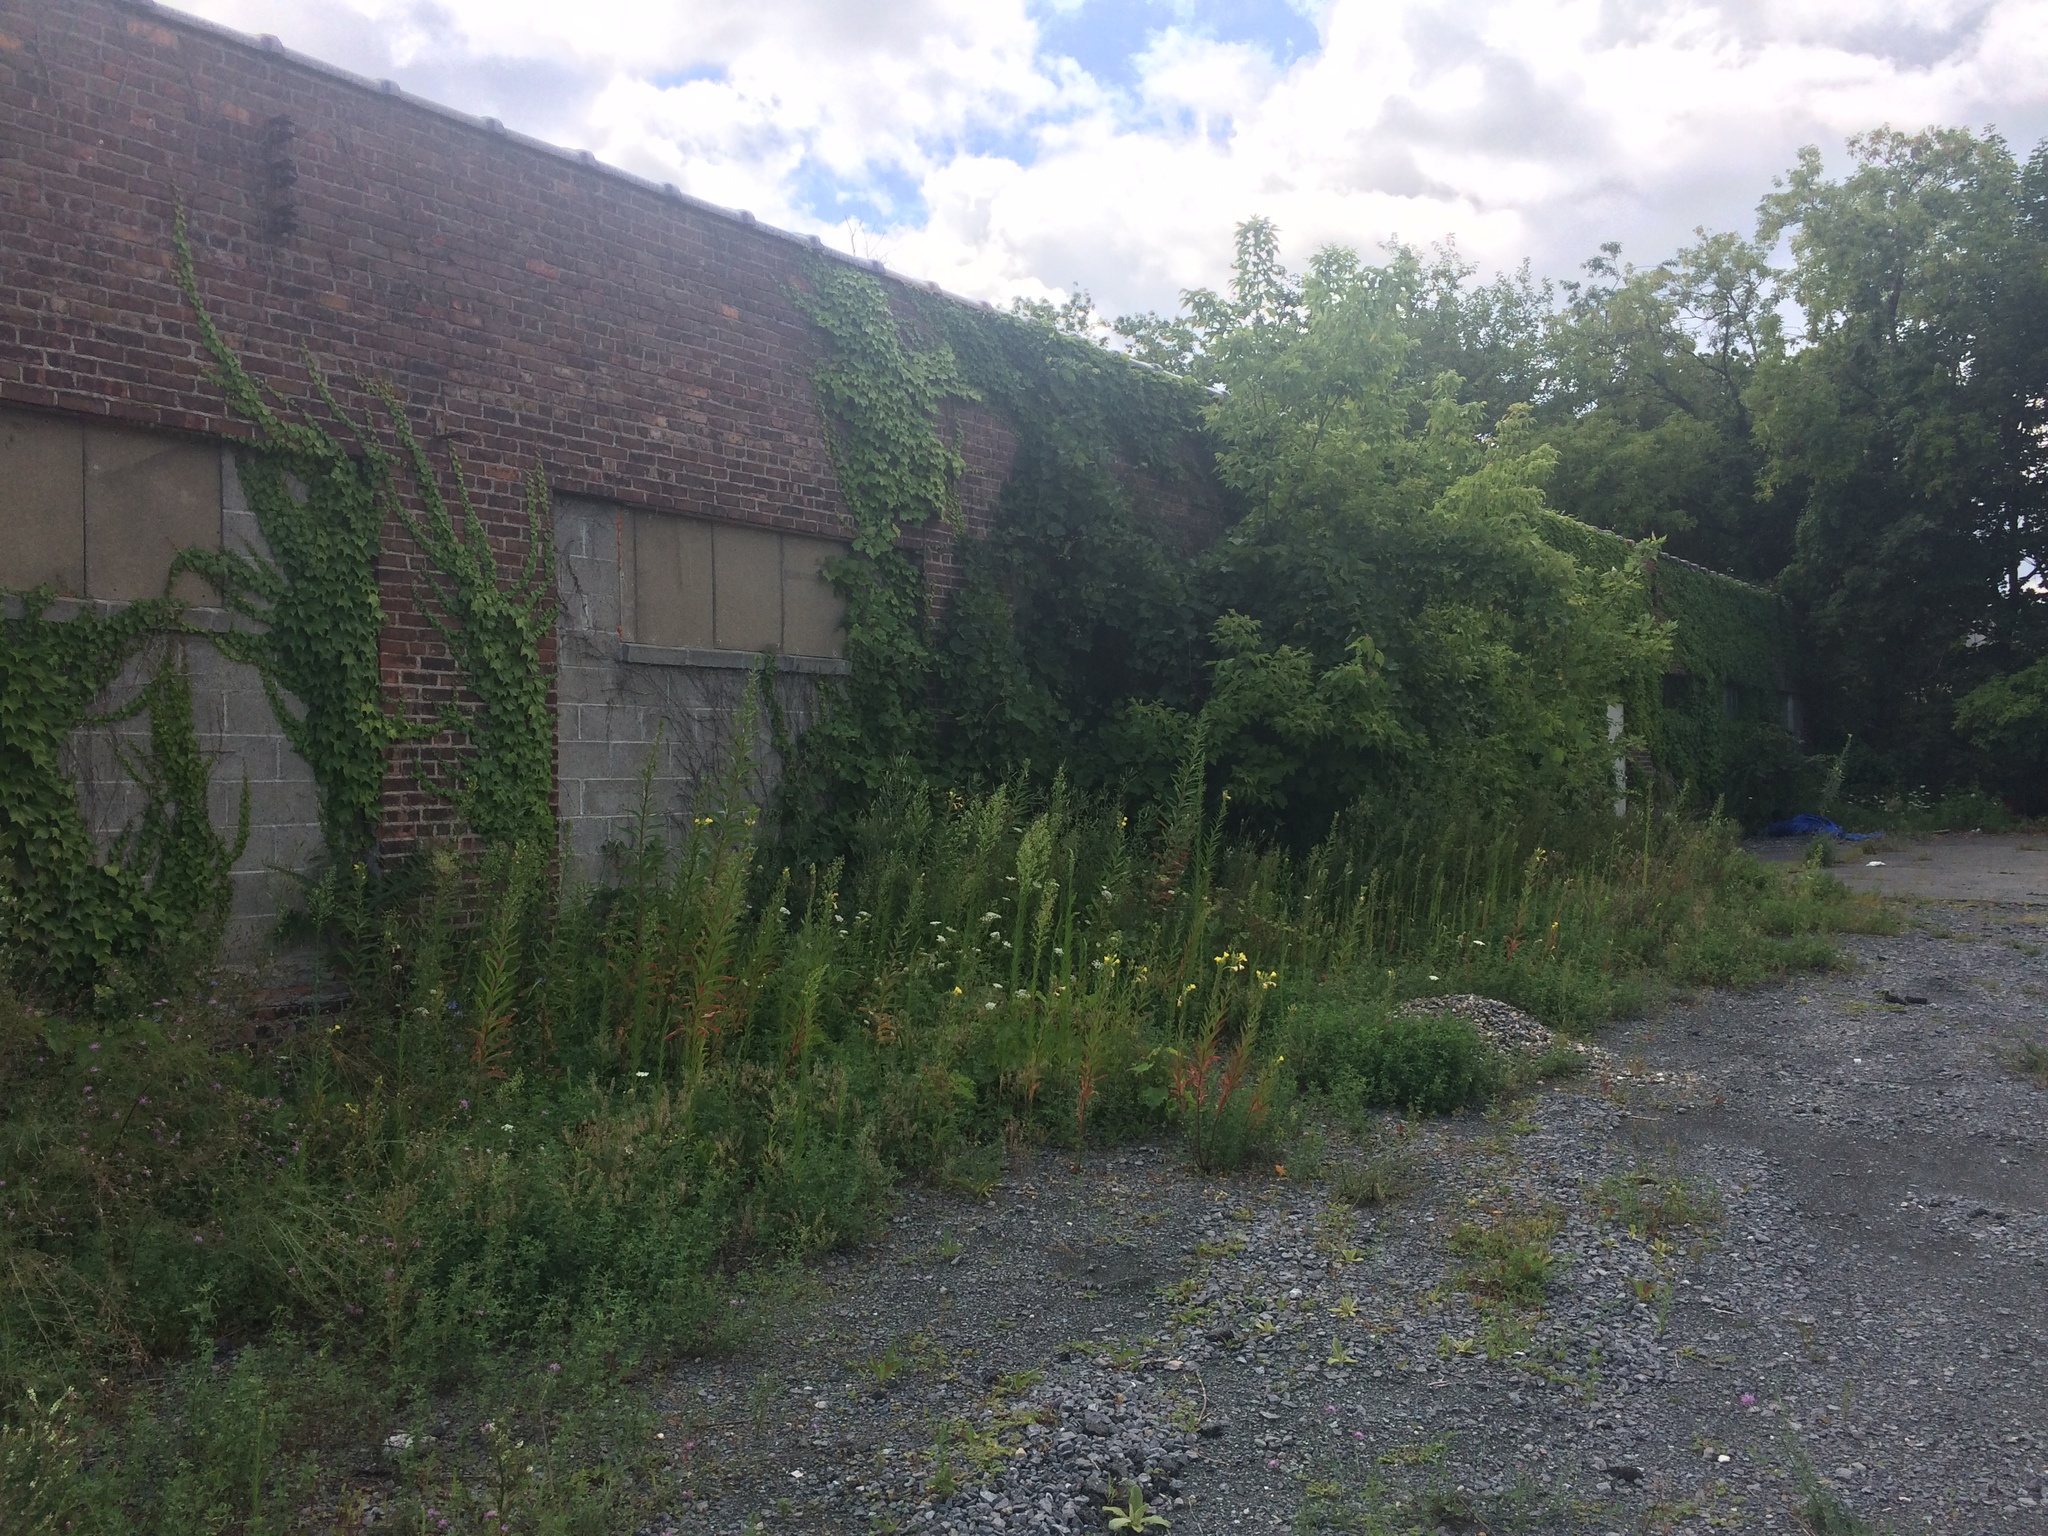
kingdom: Plantae
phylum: Tracheophyta
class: Magnoliopsida
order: Asterales
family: Asteraceae
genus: Erigeron
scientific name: Erigeron canadensis
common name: Canadian fleabane
